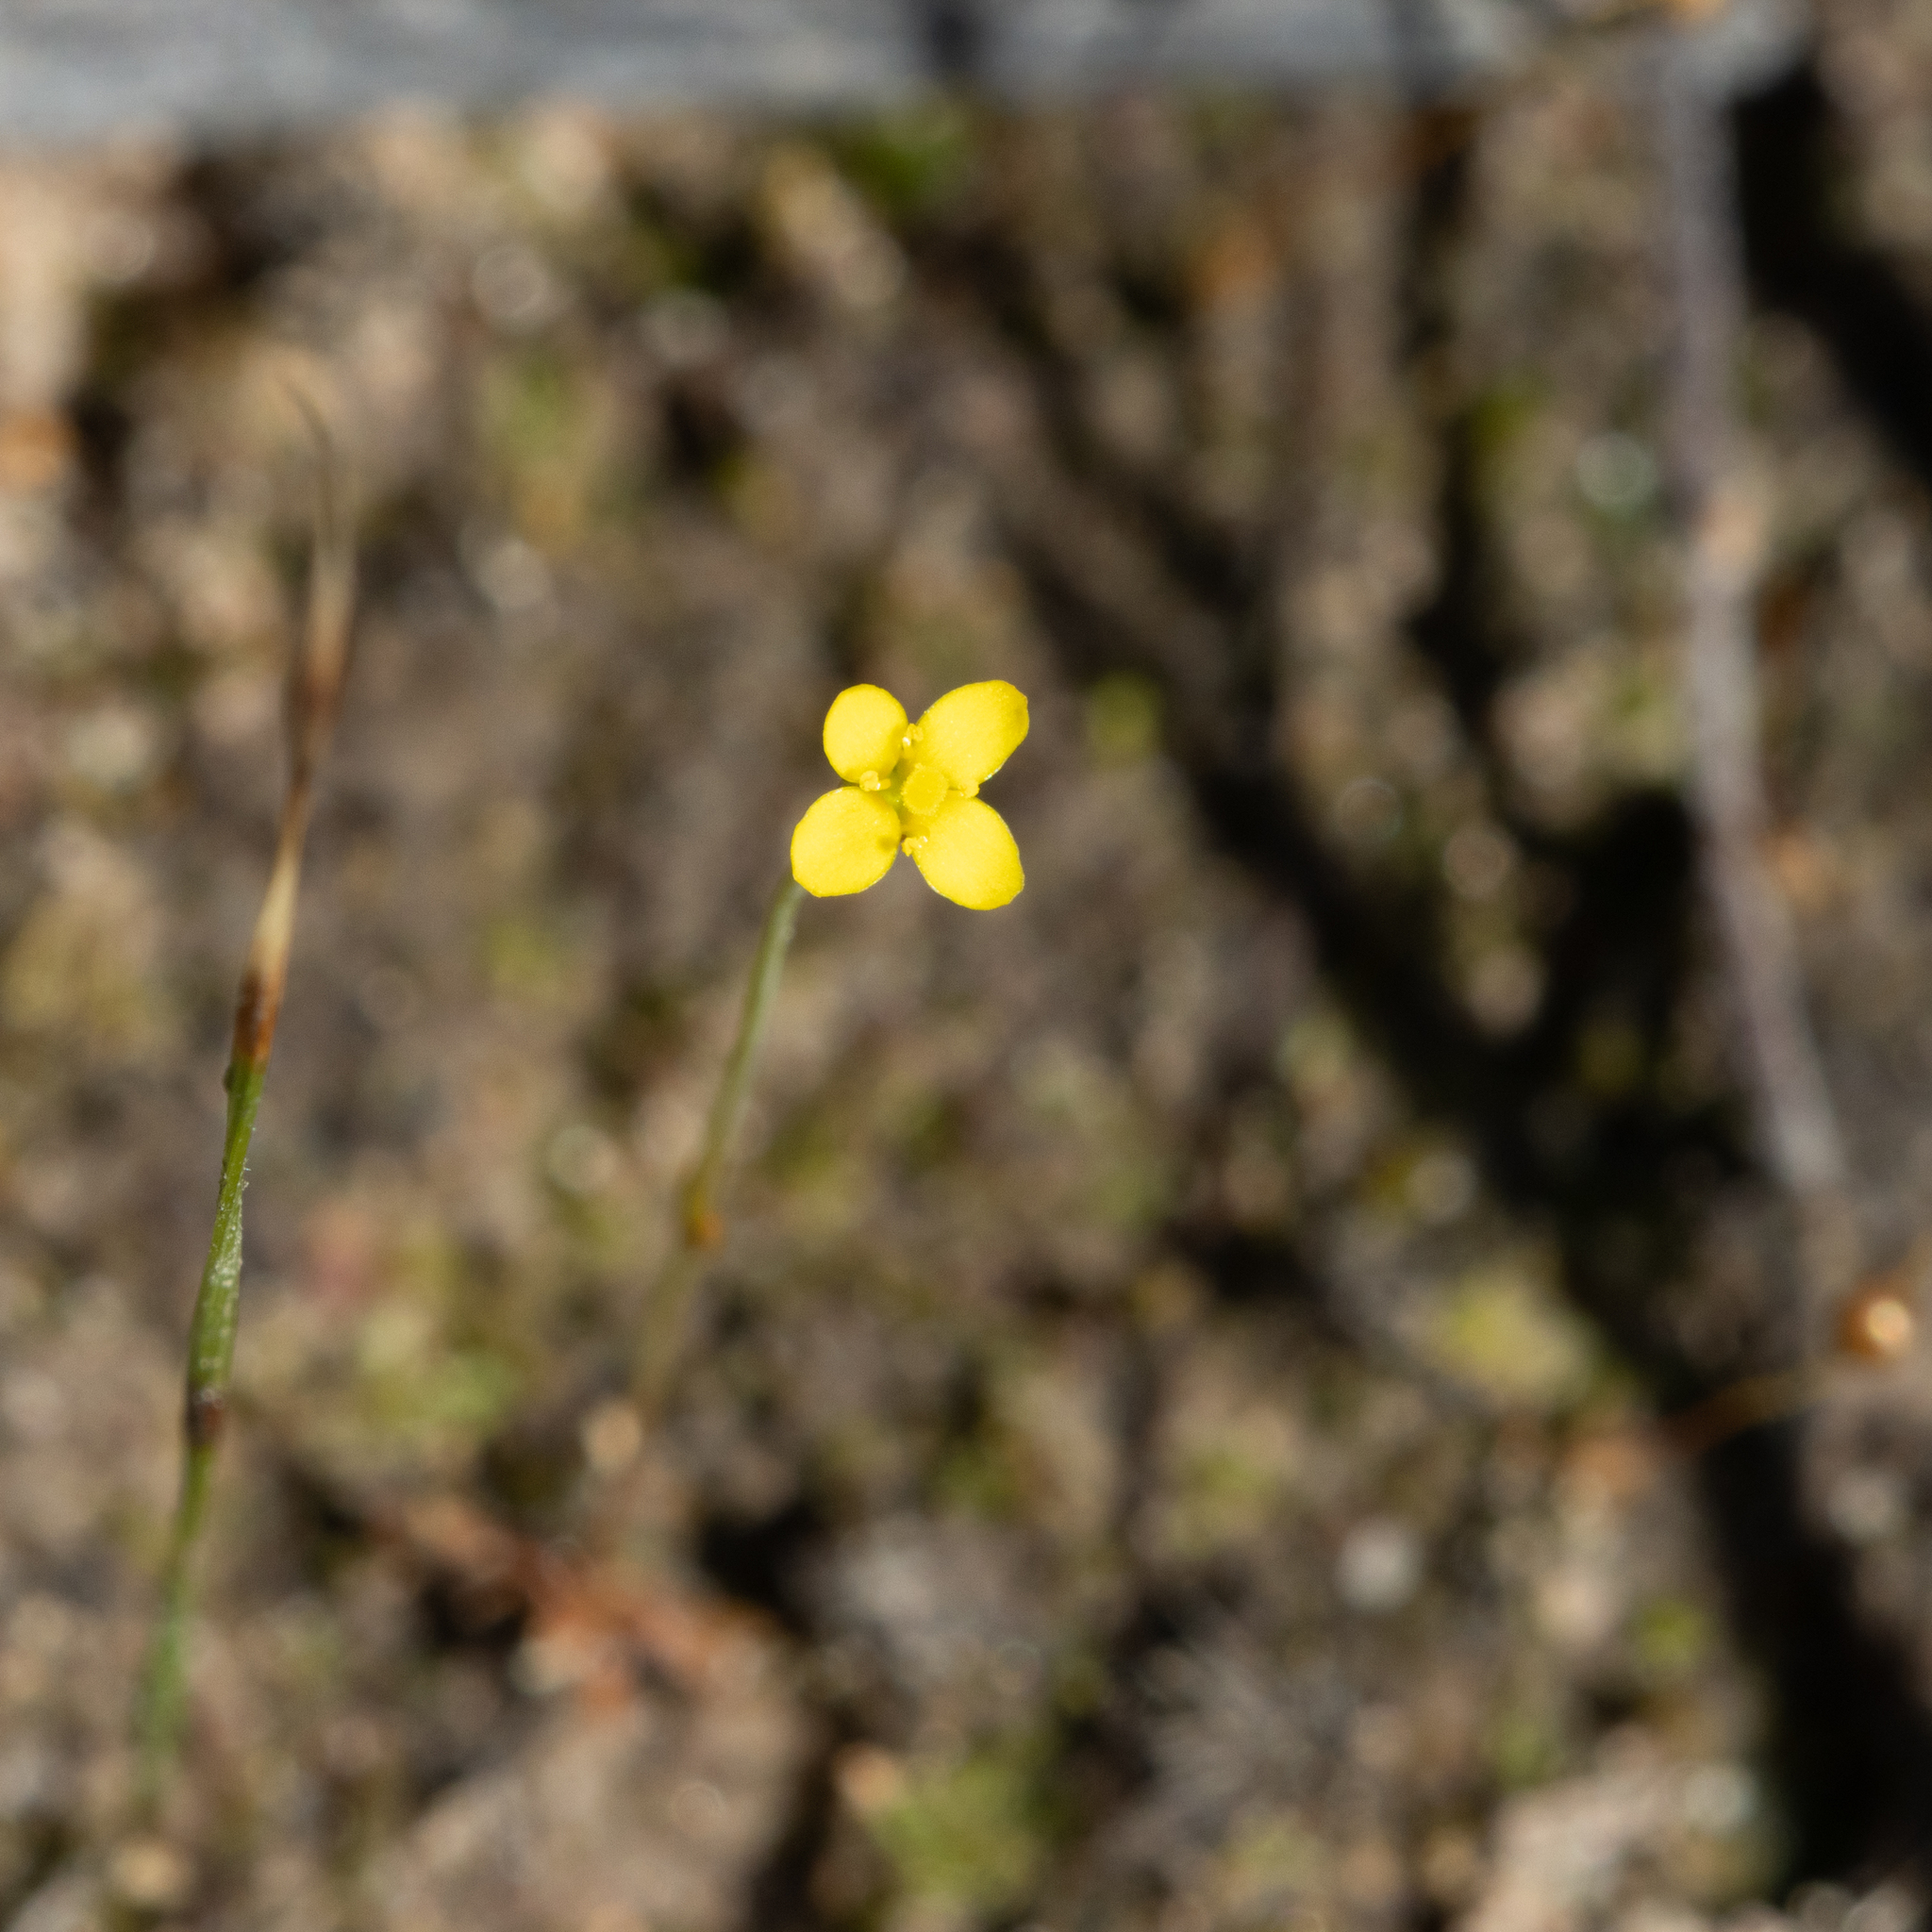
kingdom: Plantae
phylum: Tracheophyta
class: Magnoliopsida
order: Gentianales
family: Gentianaceae
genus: Cicendia
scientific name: Cicendia filiformis
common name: Yellow centaury
